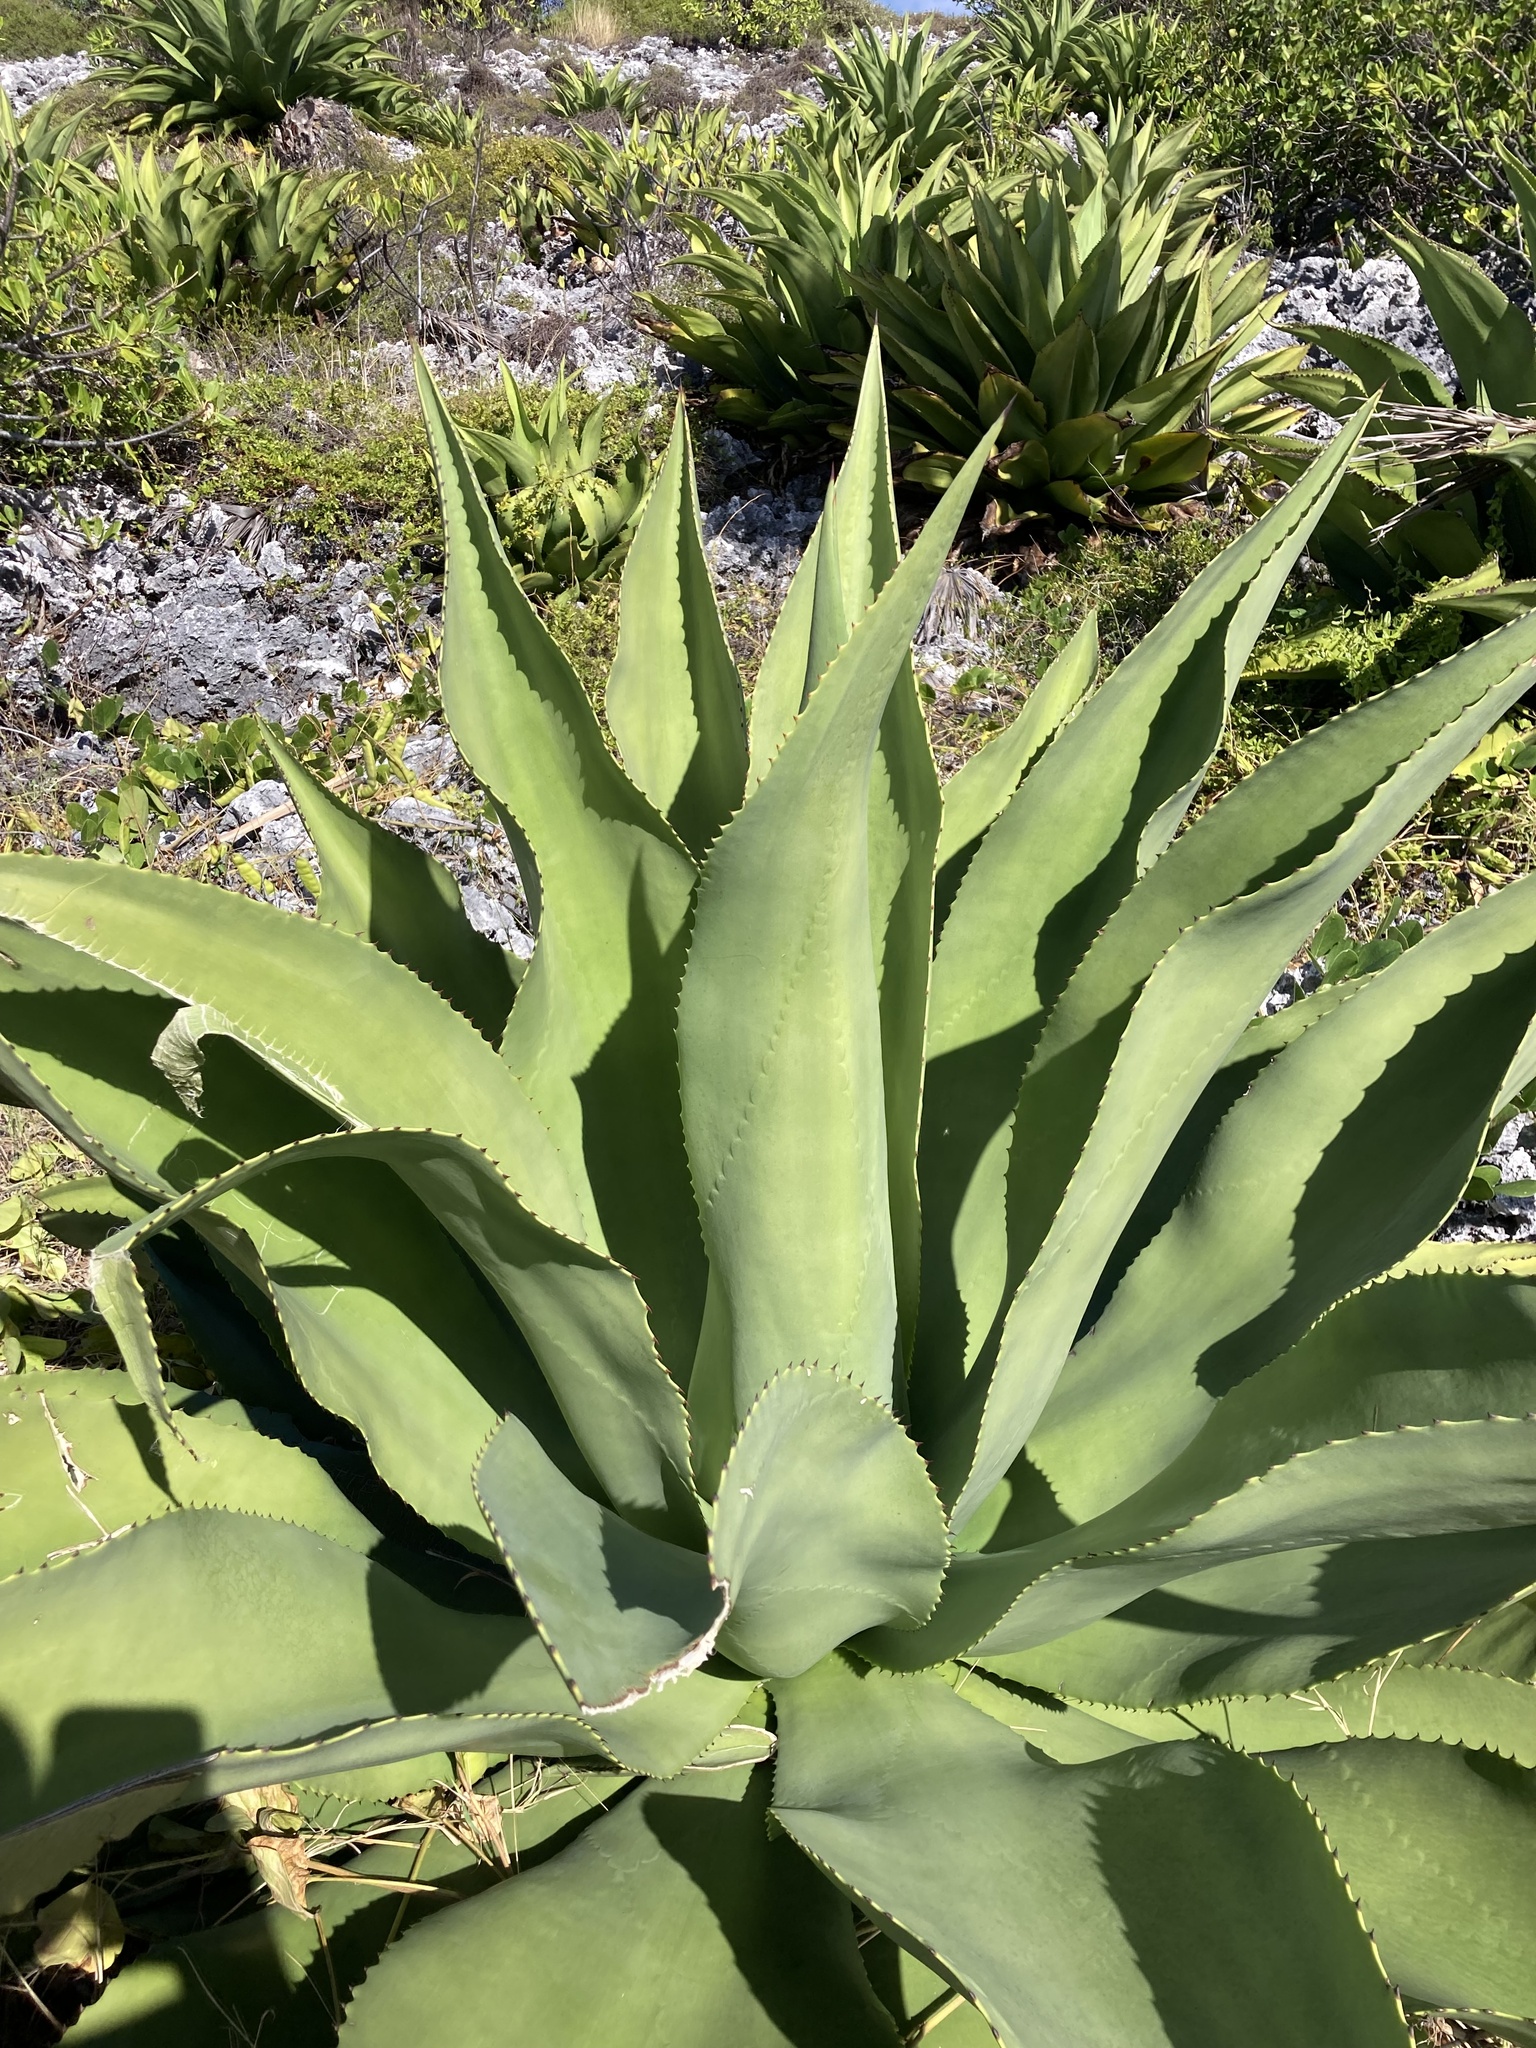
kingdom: Plantae
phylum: Tracheophyta
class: Liliopsida
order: Asparagales
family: Asparagaceae
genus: Agave
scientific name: Agave caymanensis
